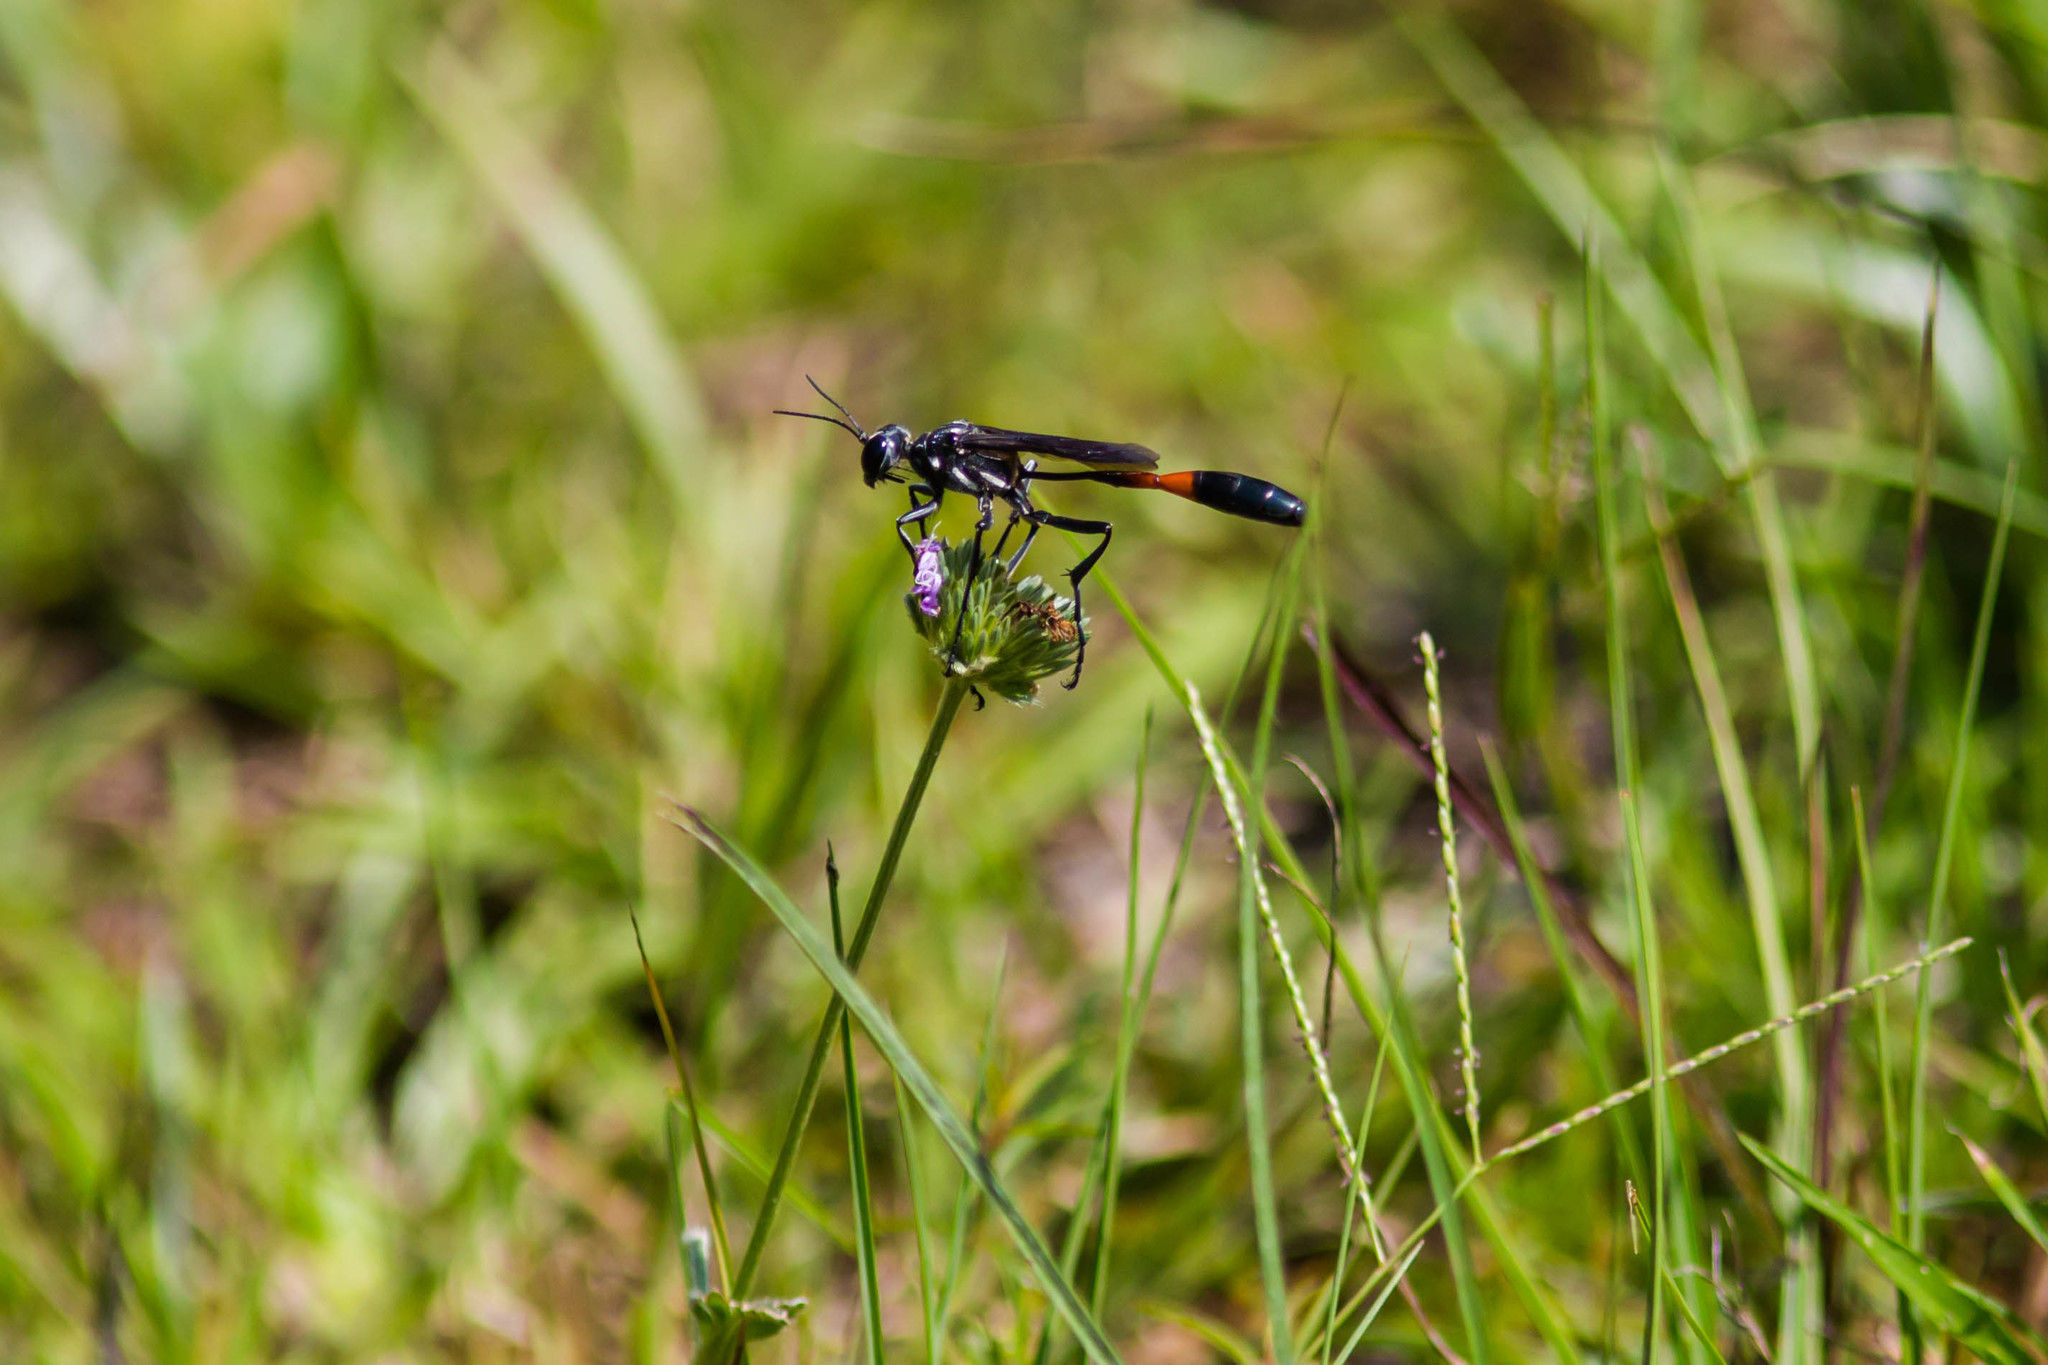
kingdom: Animalia
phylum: Arthropoda
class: Insecta
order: Hymenoptera
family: Sphecidae
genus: Ammophila
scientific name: Ammophila procera
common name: Common thread-waisted wasp
